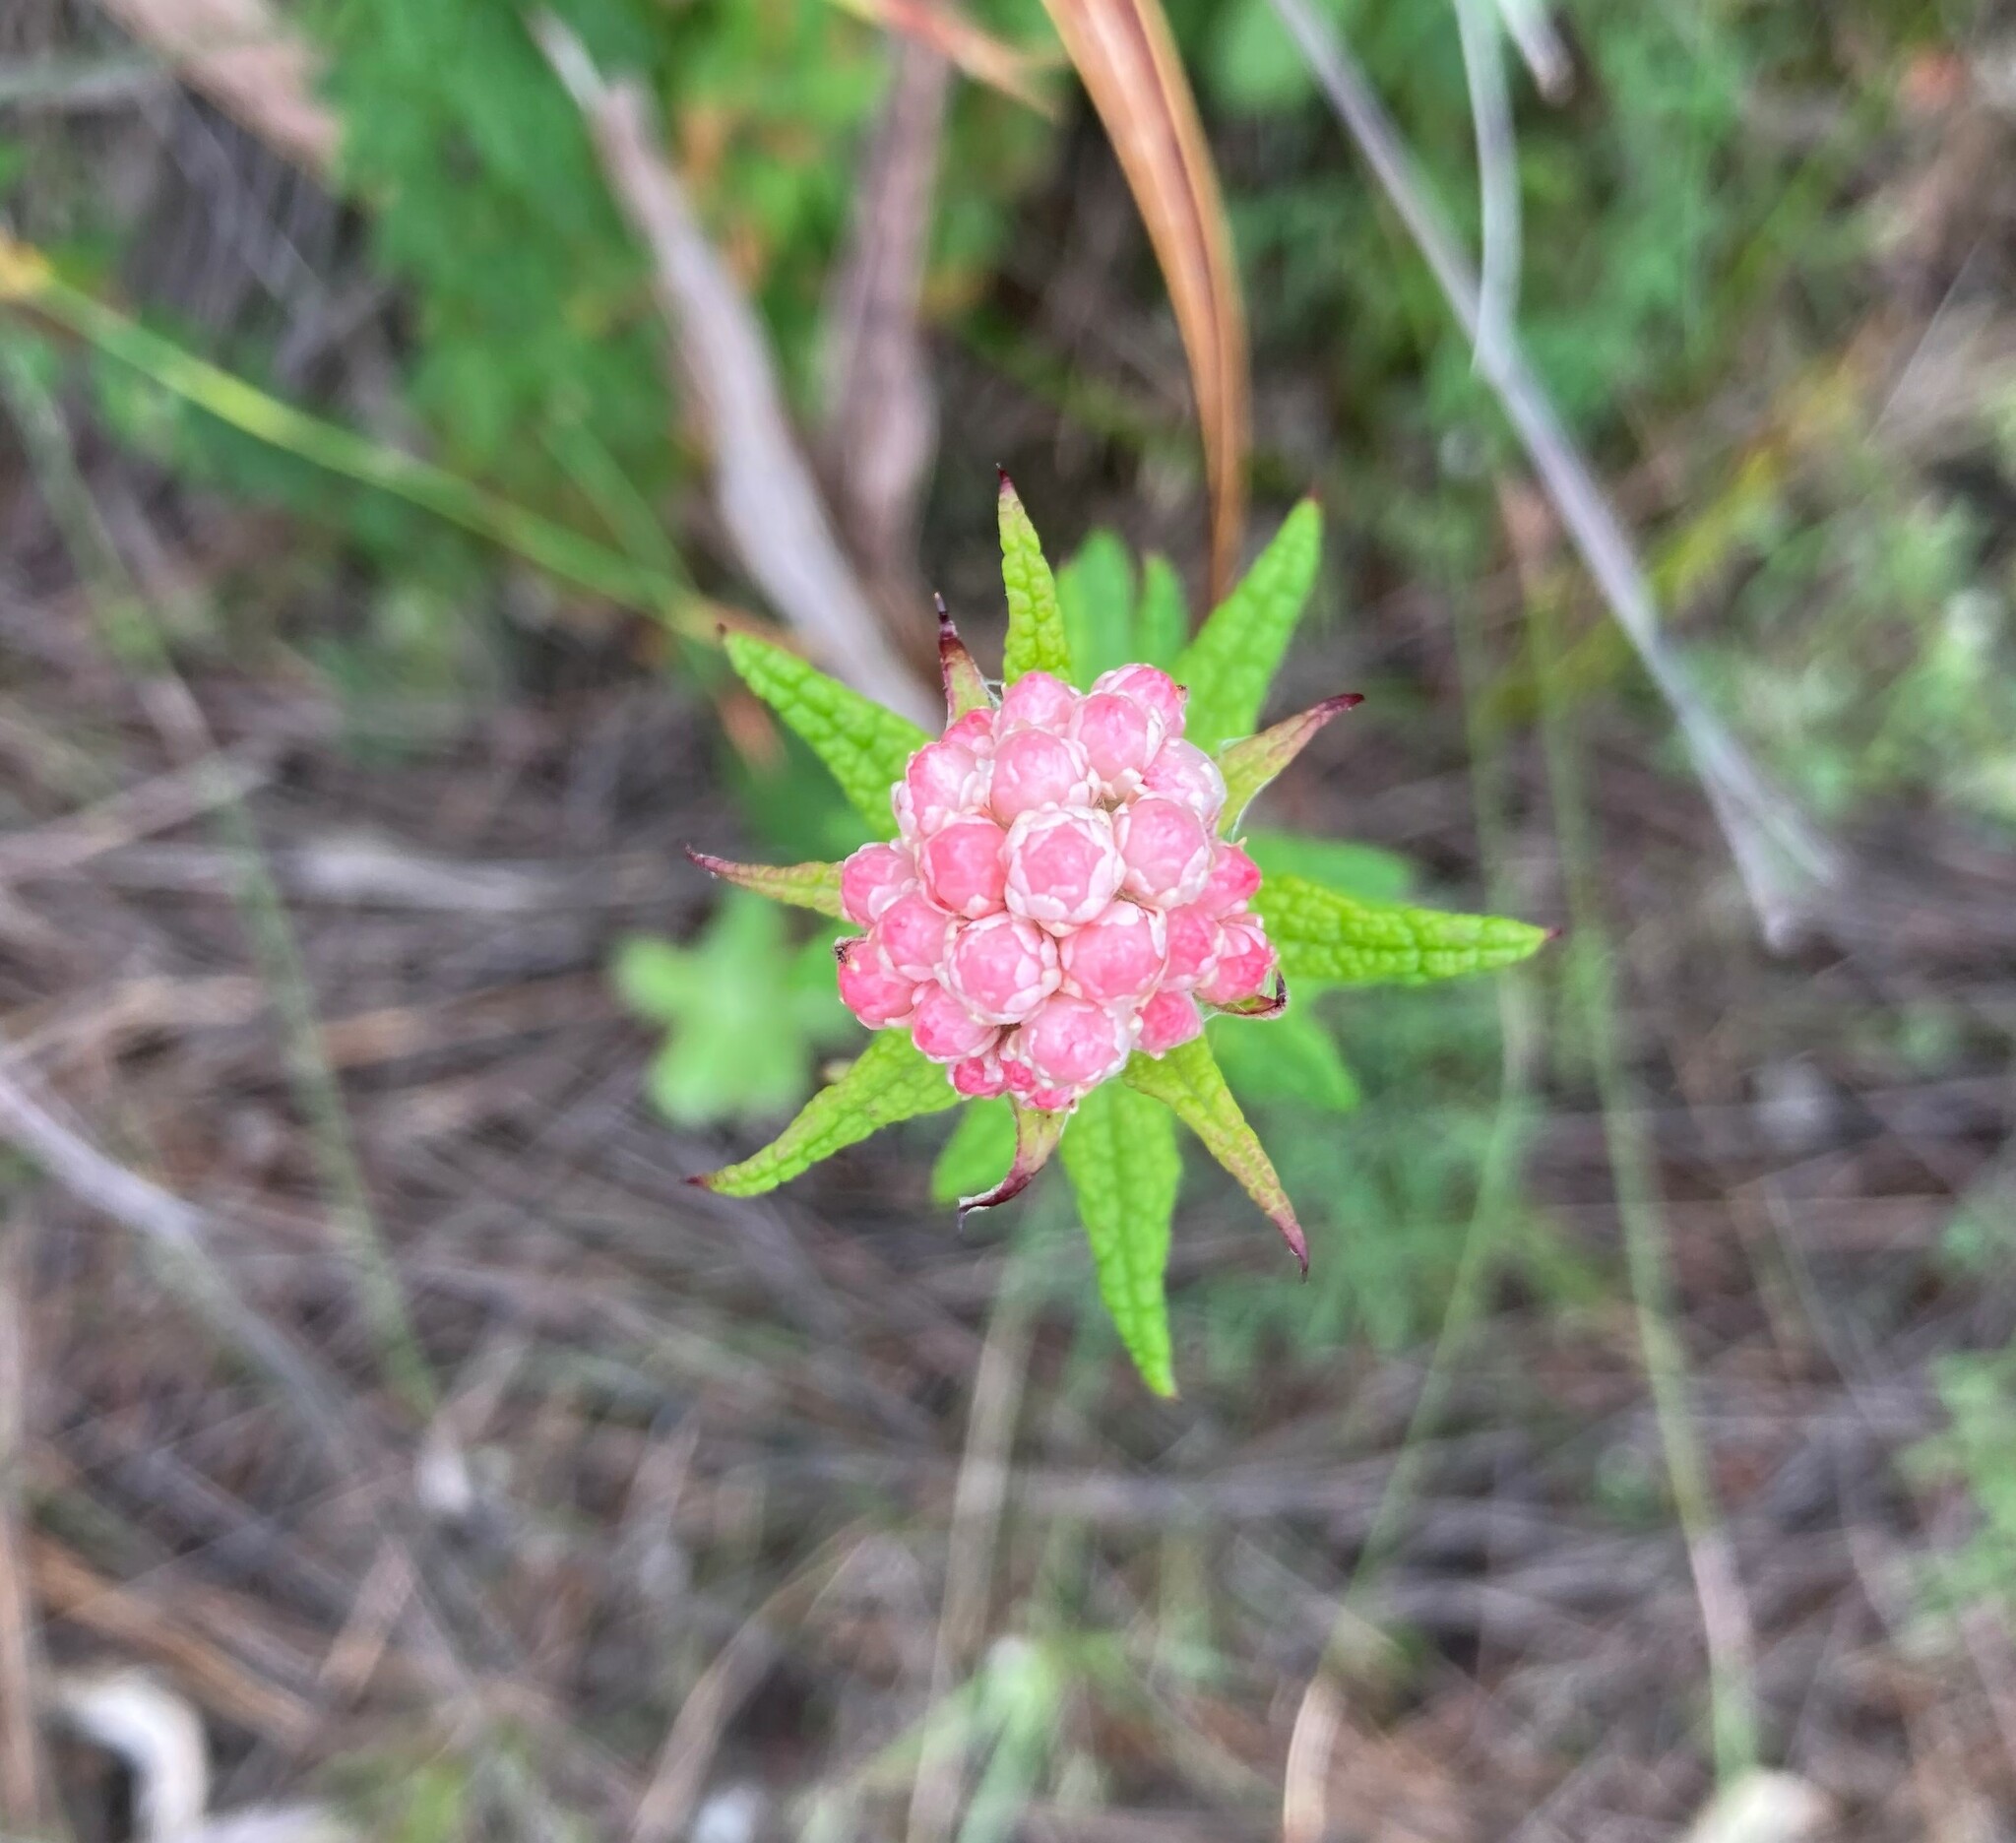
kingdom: Plantae
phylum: Tracheophyta
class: Magnoliopsida
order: Asterales
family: Asteraceae
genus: Helichrysum
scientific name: Helichrysum felinum
